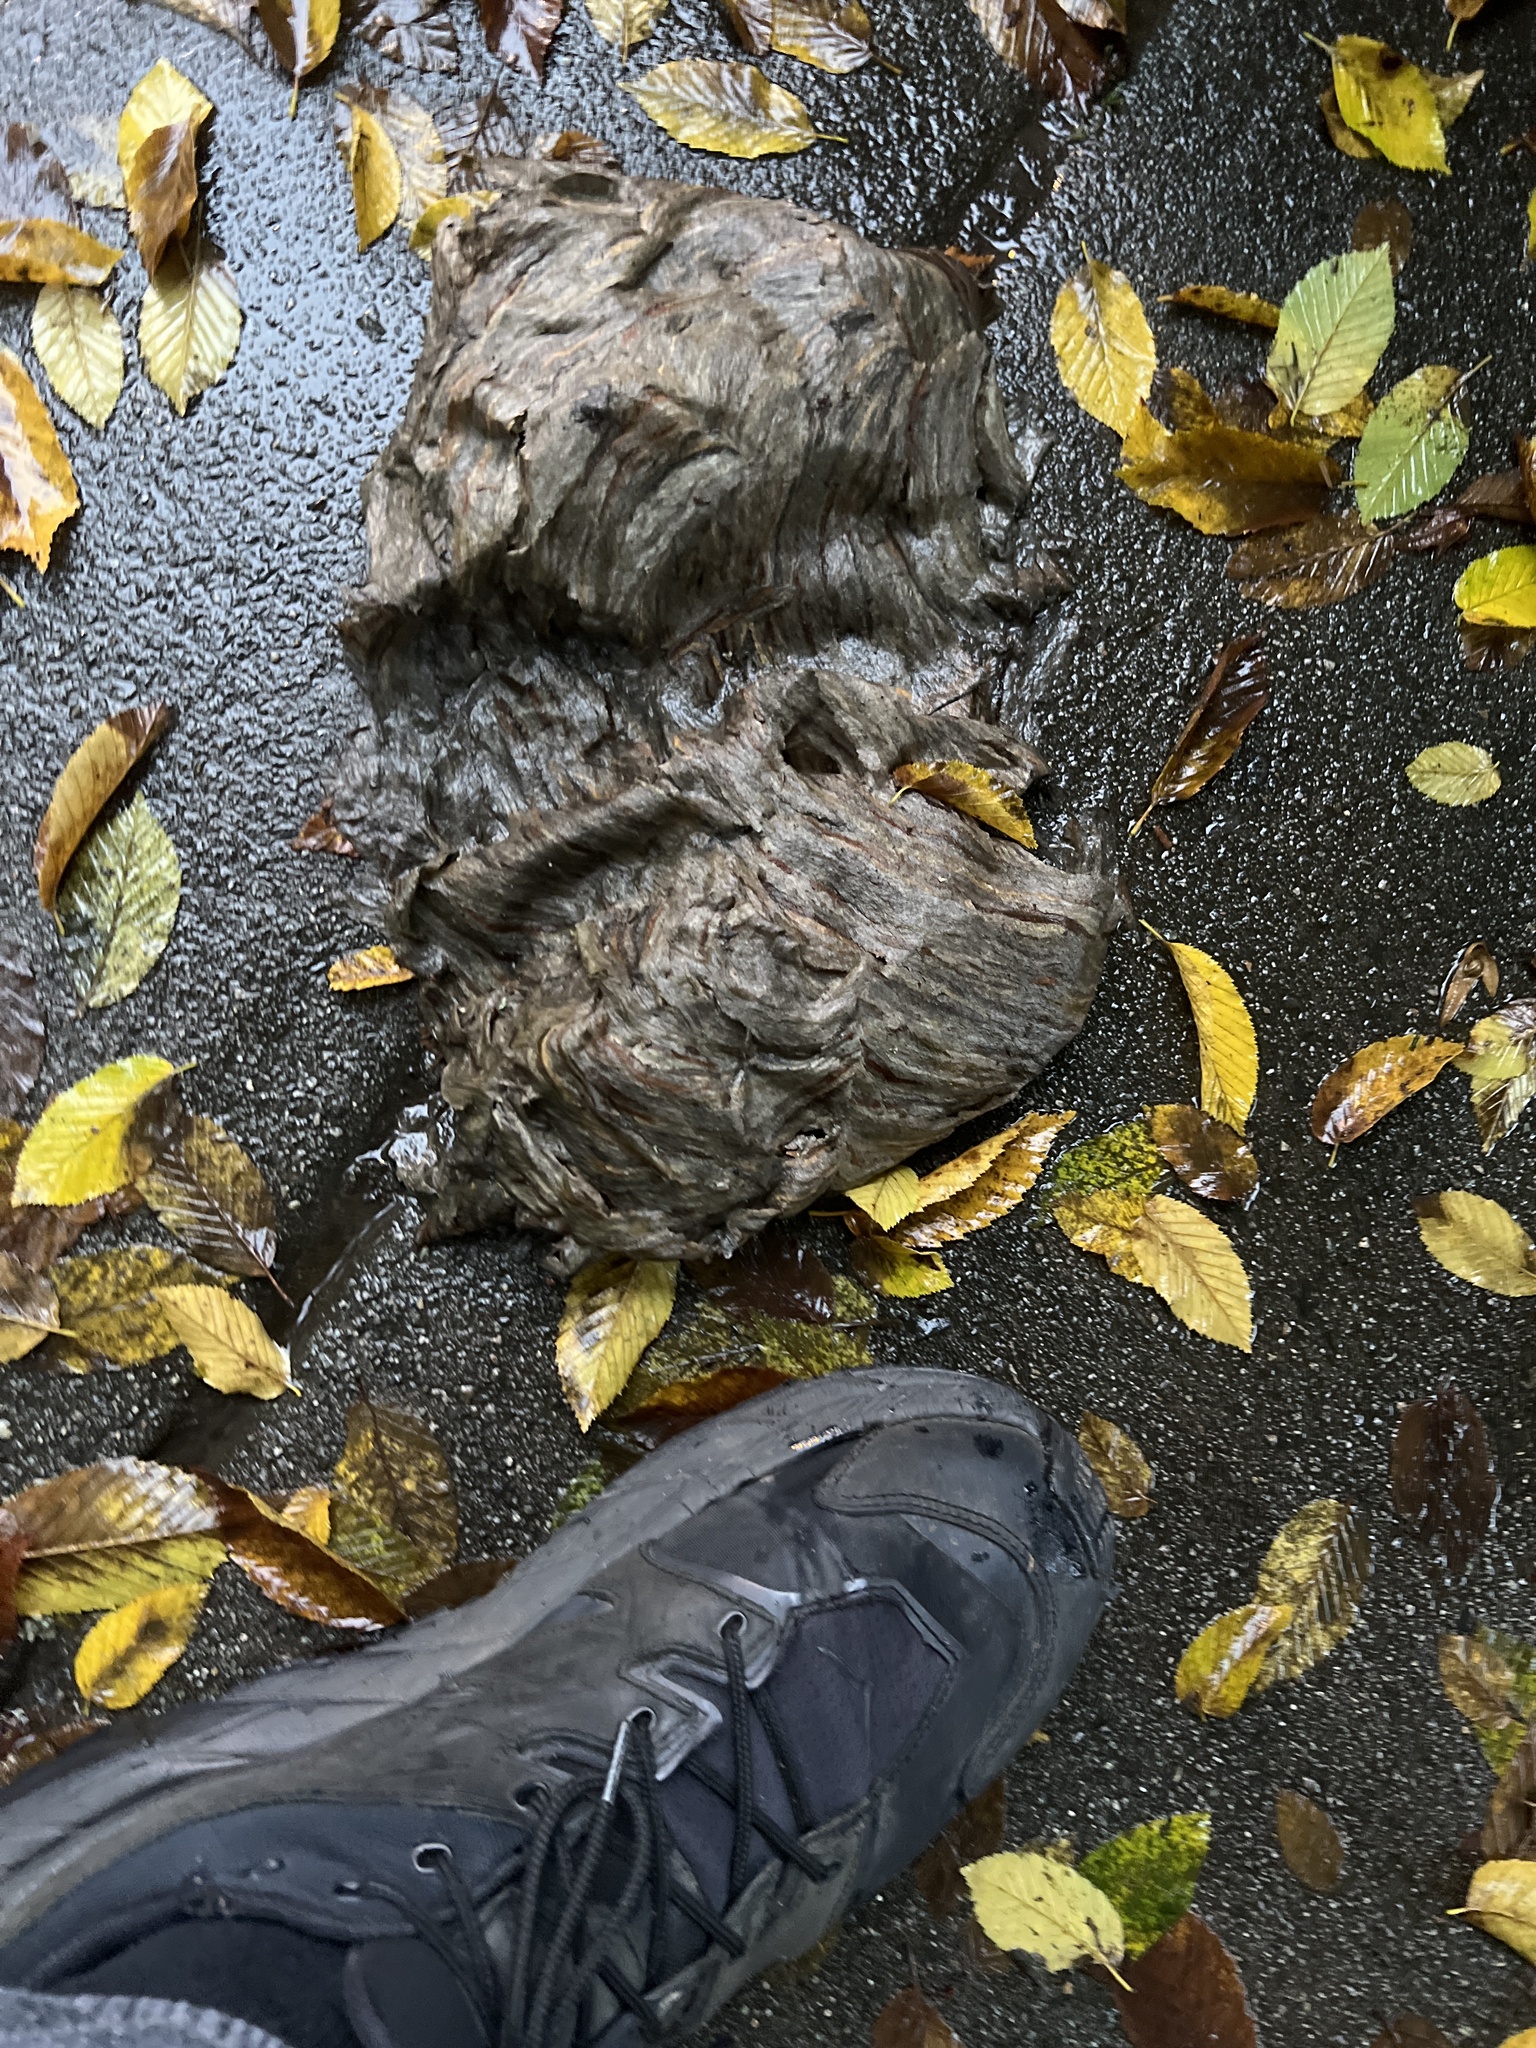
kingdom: Animalia
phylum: Arthropoda
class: Insecta
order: Hymenoptera
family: Vespidae
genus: Dolichovespula
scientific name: Dolichovespula
